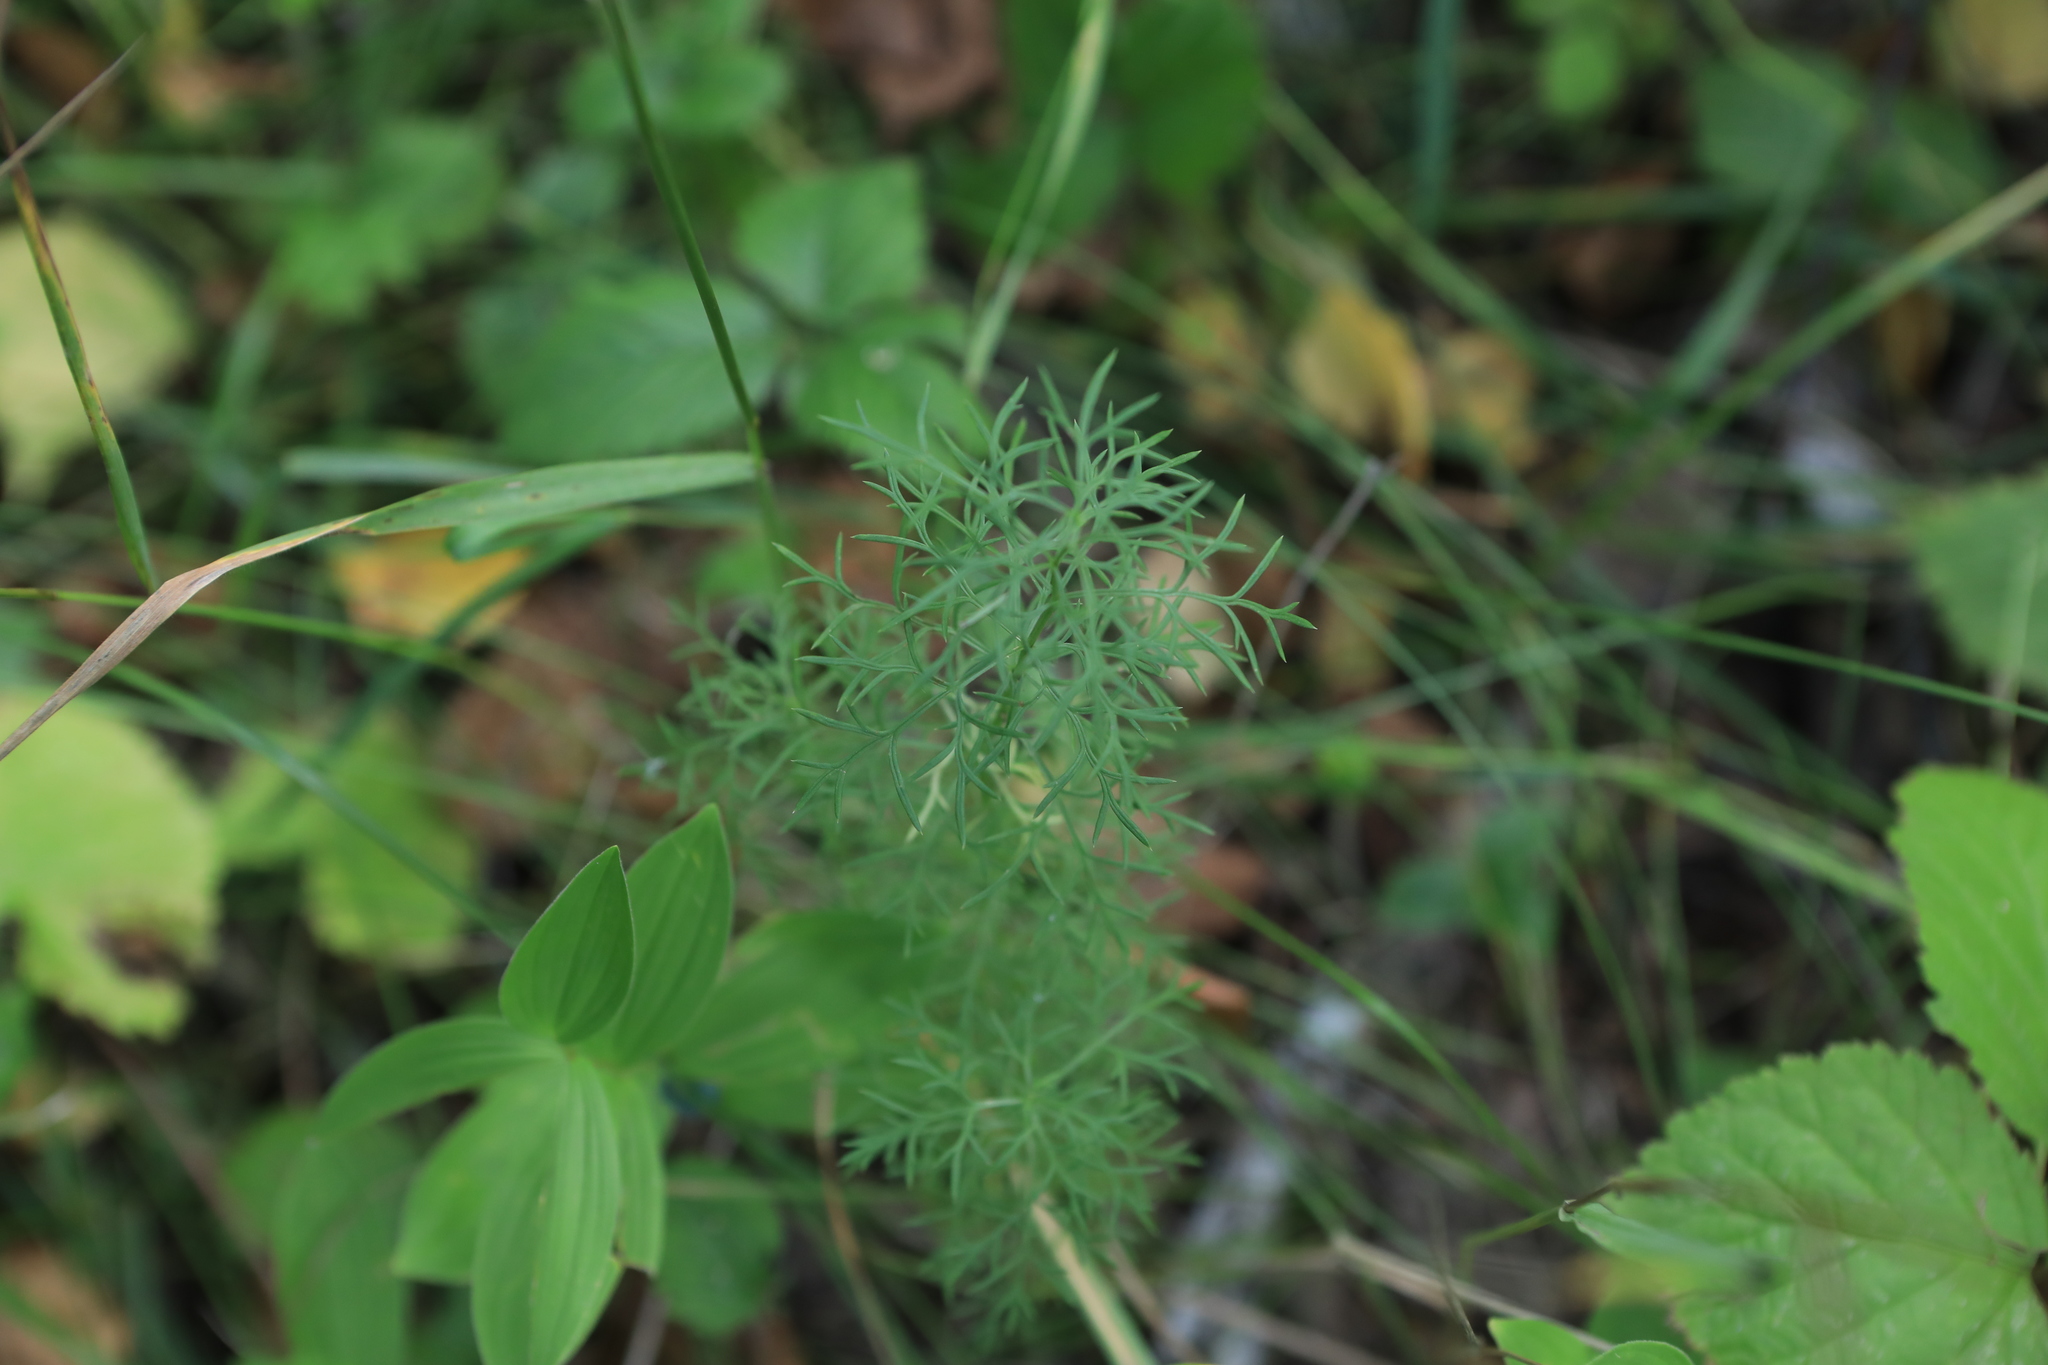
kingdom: Plantae
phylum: Tracheophyta
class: Magnoliopsida
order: Ranunculales
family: Ranunculaceae
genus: Adonis
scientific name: Adonis vernalis
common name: Yellow pheasants-eye
